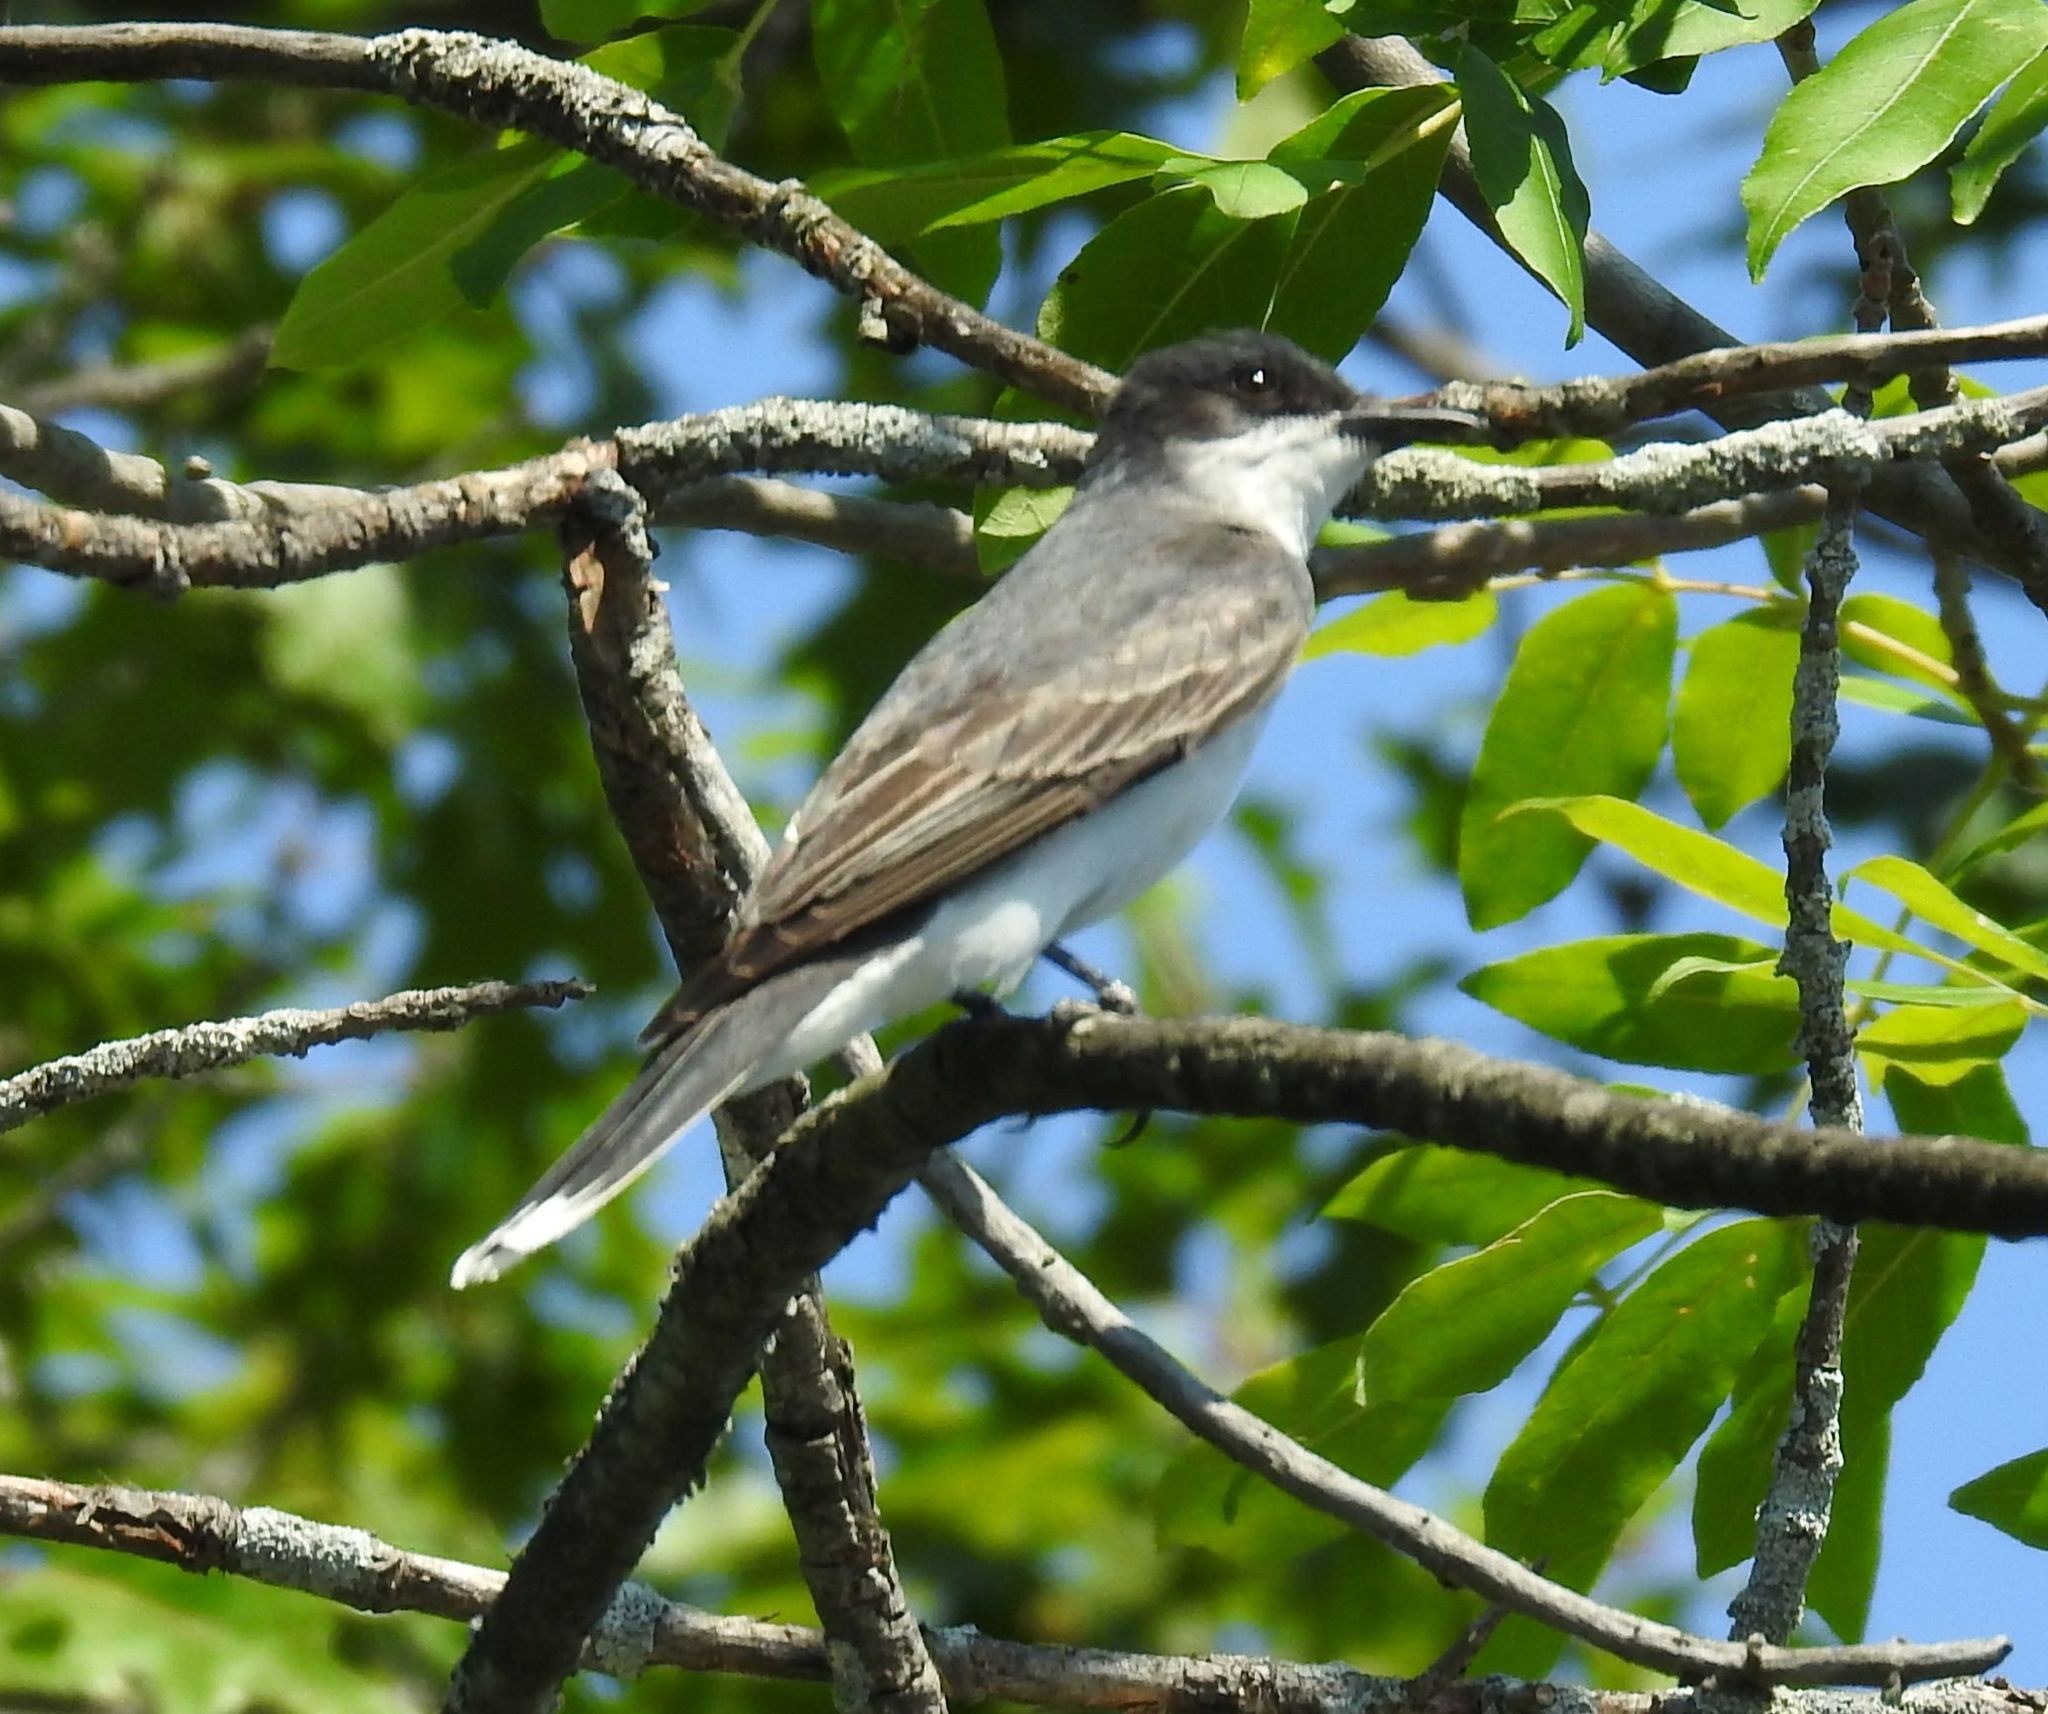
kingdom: Animalia
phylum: Chordata
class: Aves
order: Passeriformes
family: Tyrannidae
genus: Tyrannus
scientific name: Tyrannus tyrannus
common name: Eastern kingbird
